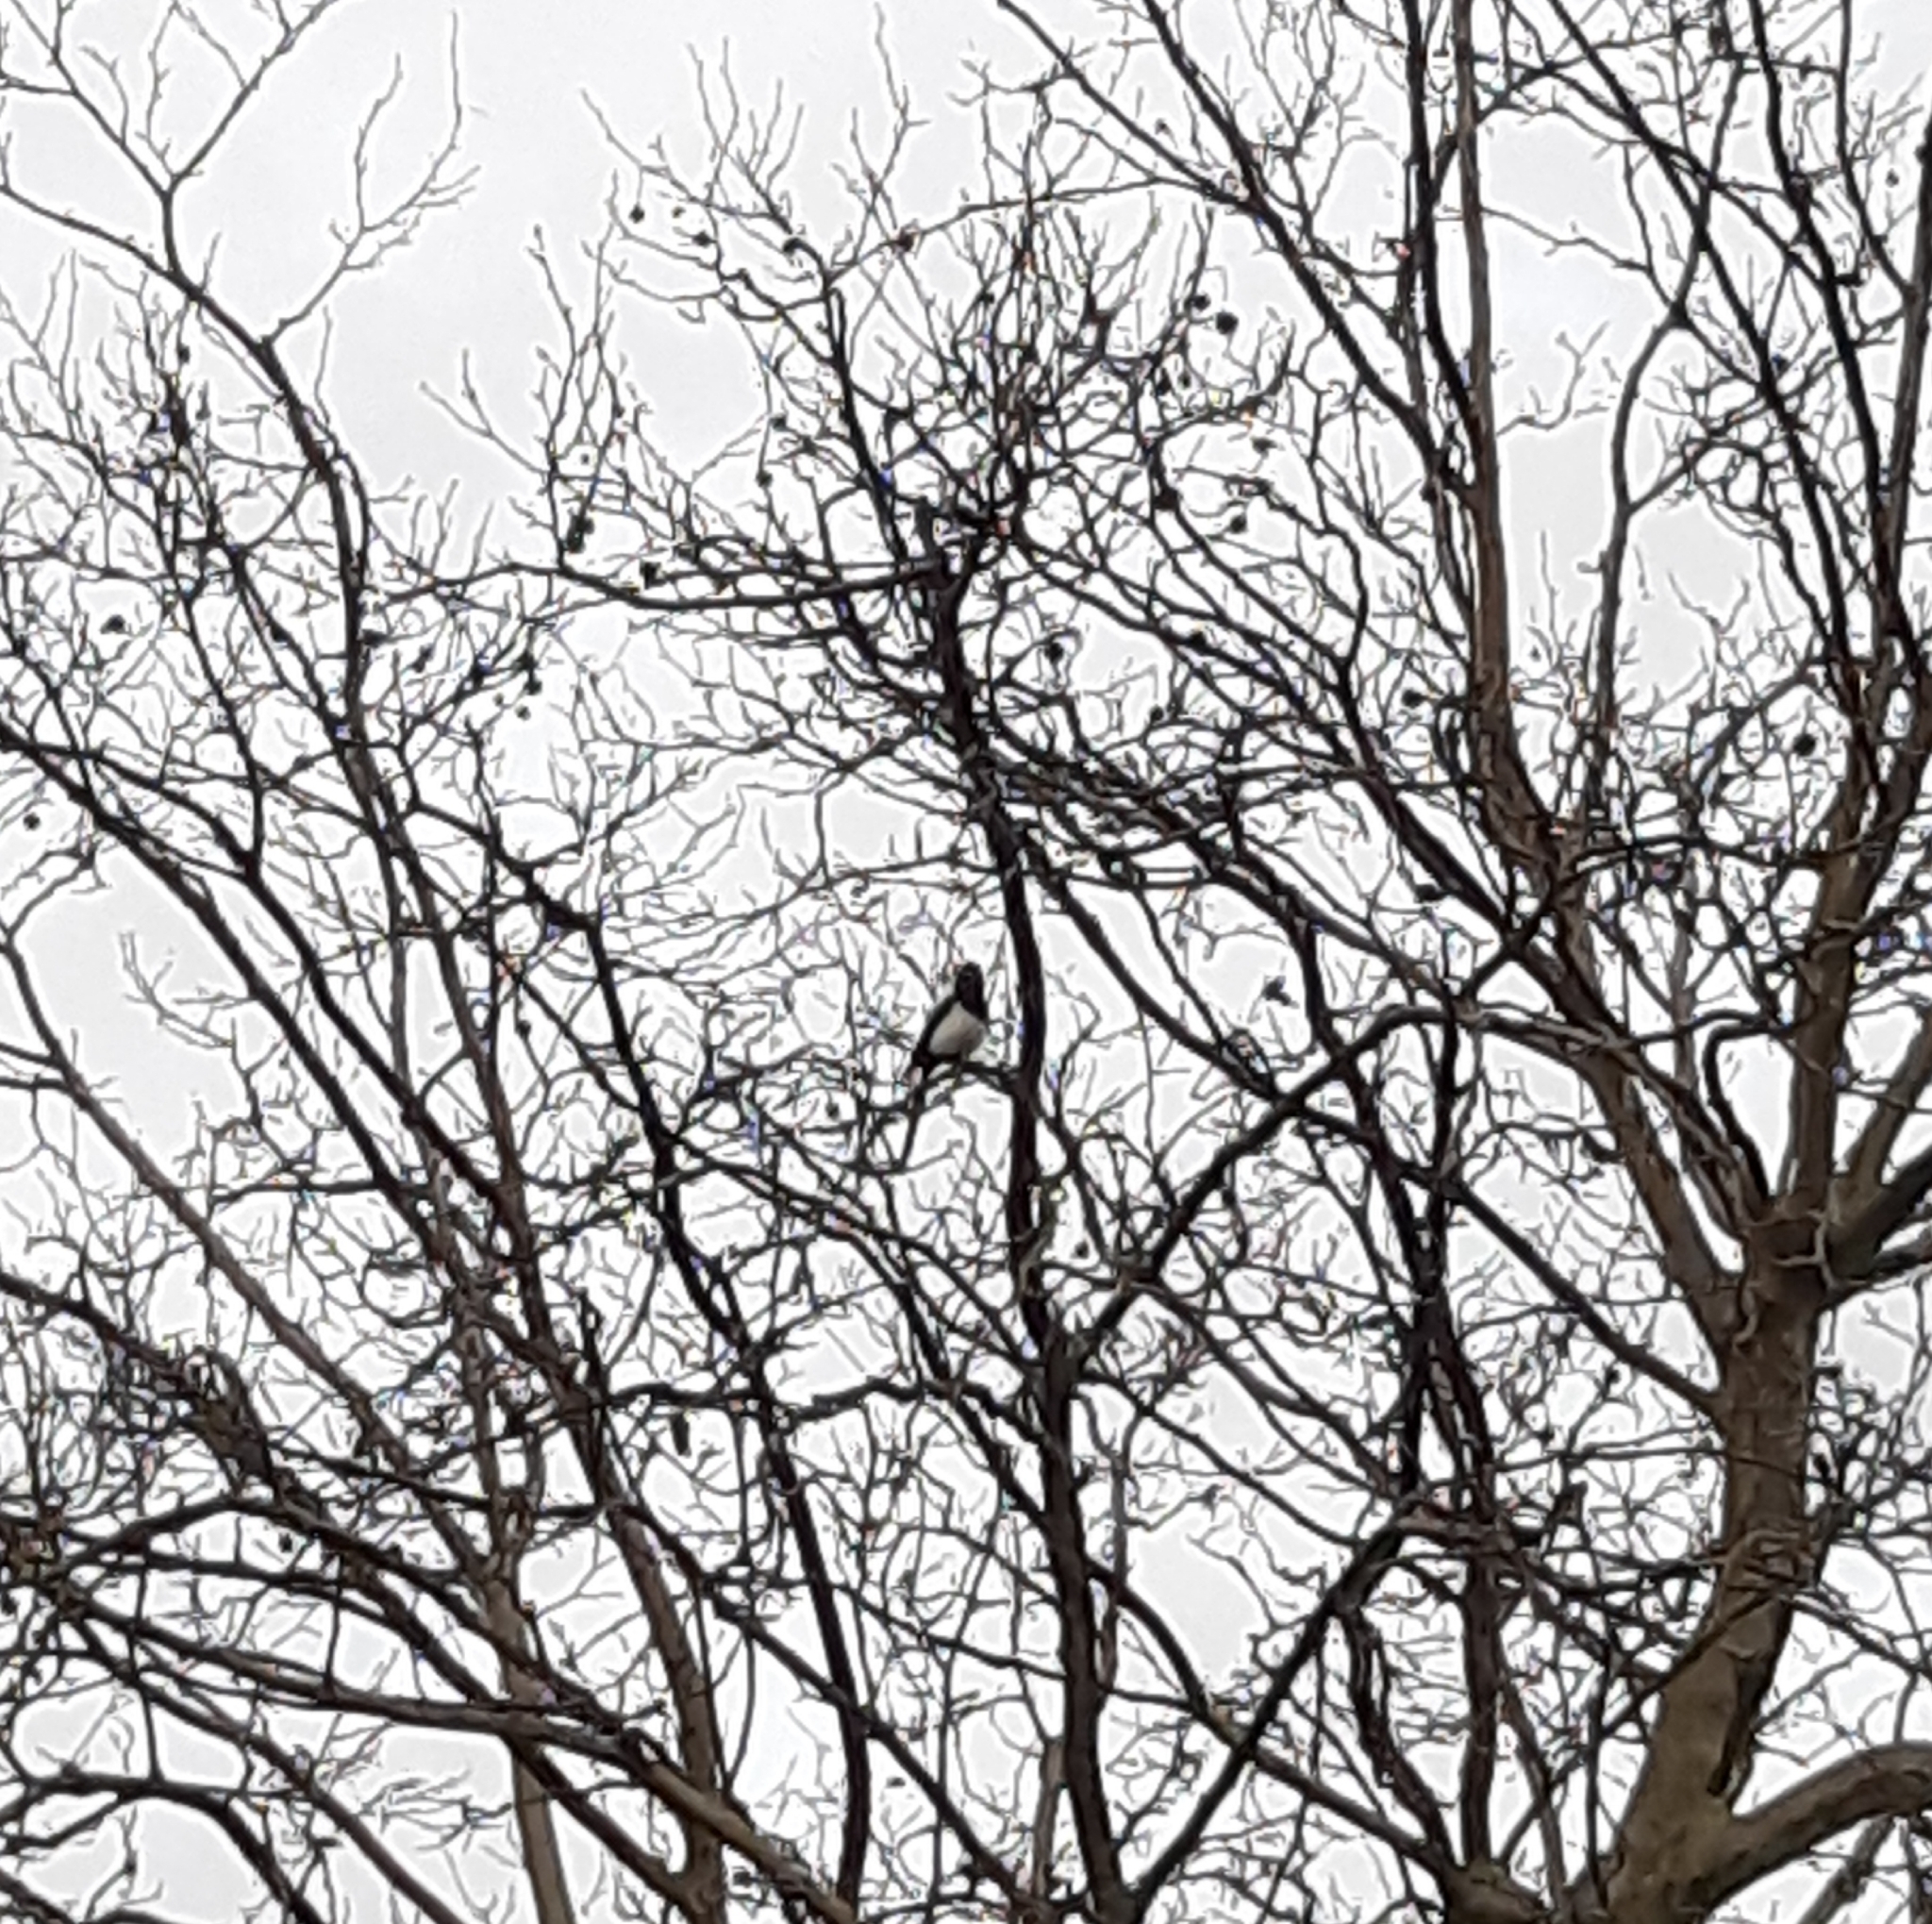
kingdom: Animalia
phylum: Chordata
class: Aves
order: Passeriformes
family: Corvidae
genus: Pica
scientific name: Pica pica
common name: Eurasian magpie
